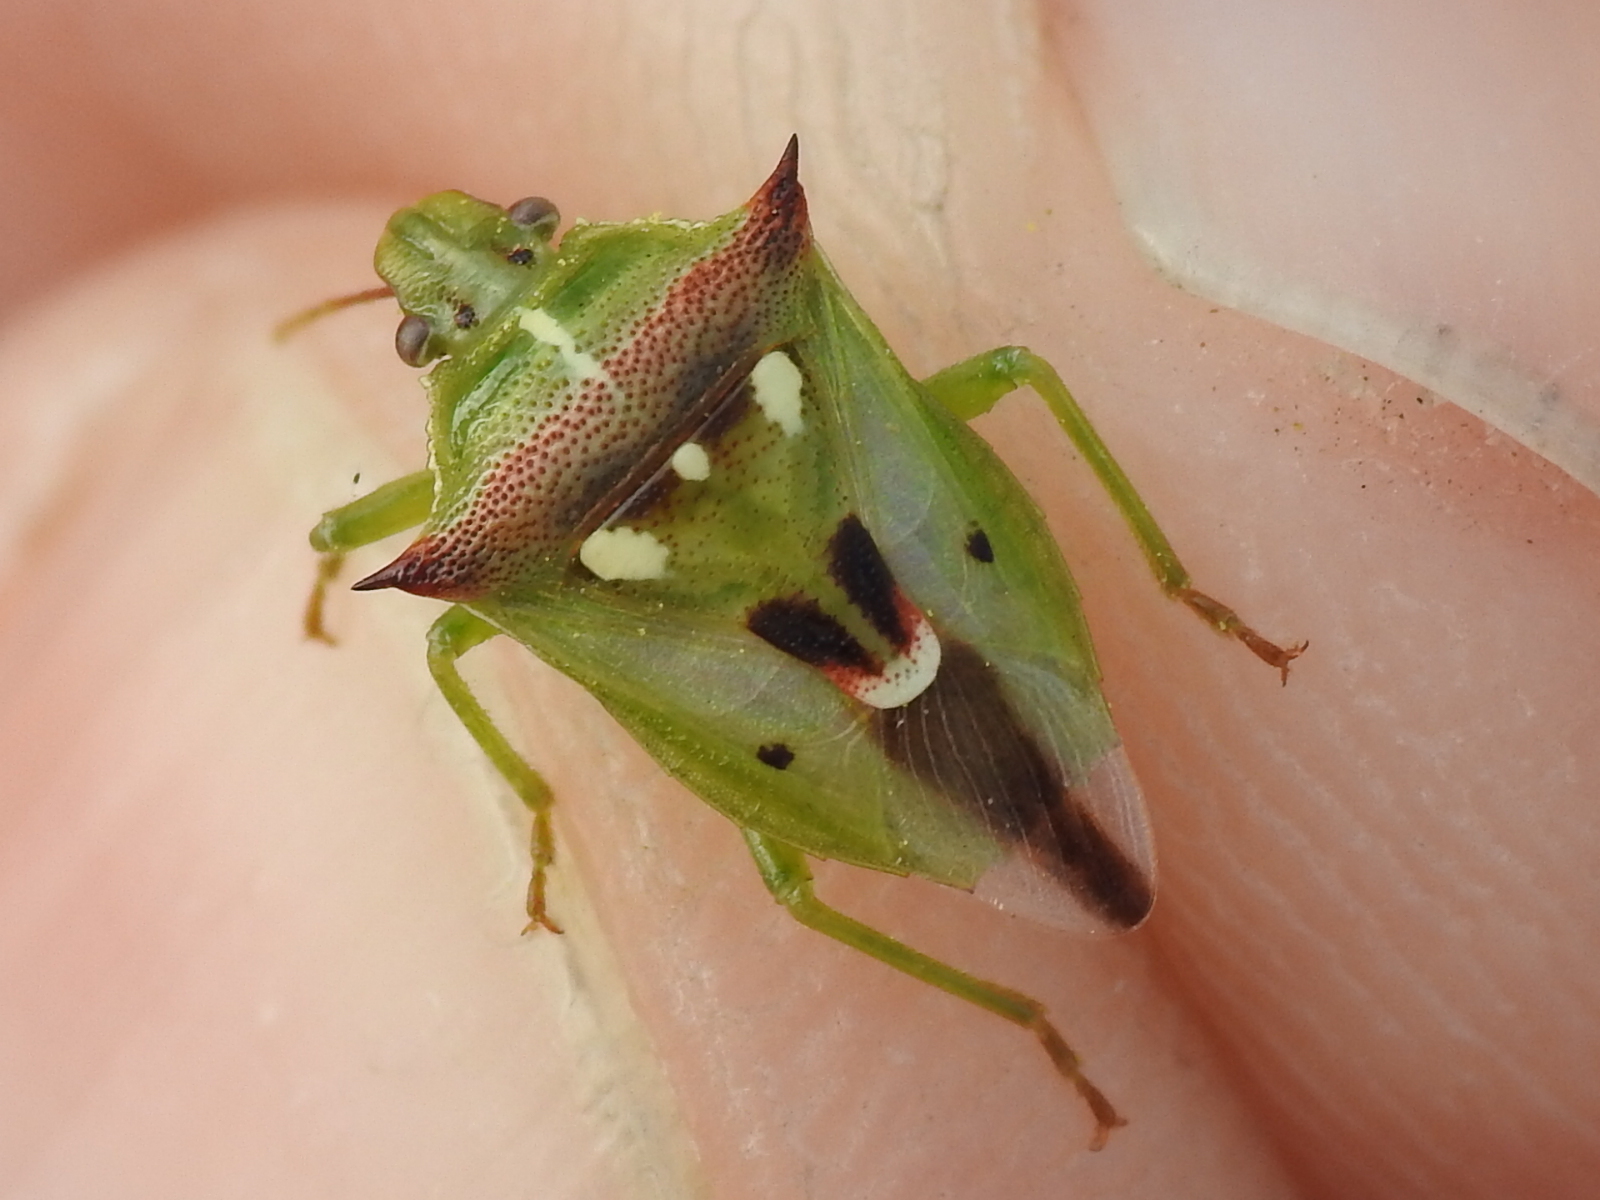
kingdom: Animalia
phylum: Arthropoda
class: Insecta
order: Hemiptera
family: Pentatomidae
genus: Tylospilus
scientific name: Tylospilus acutissimus
